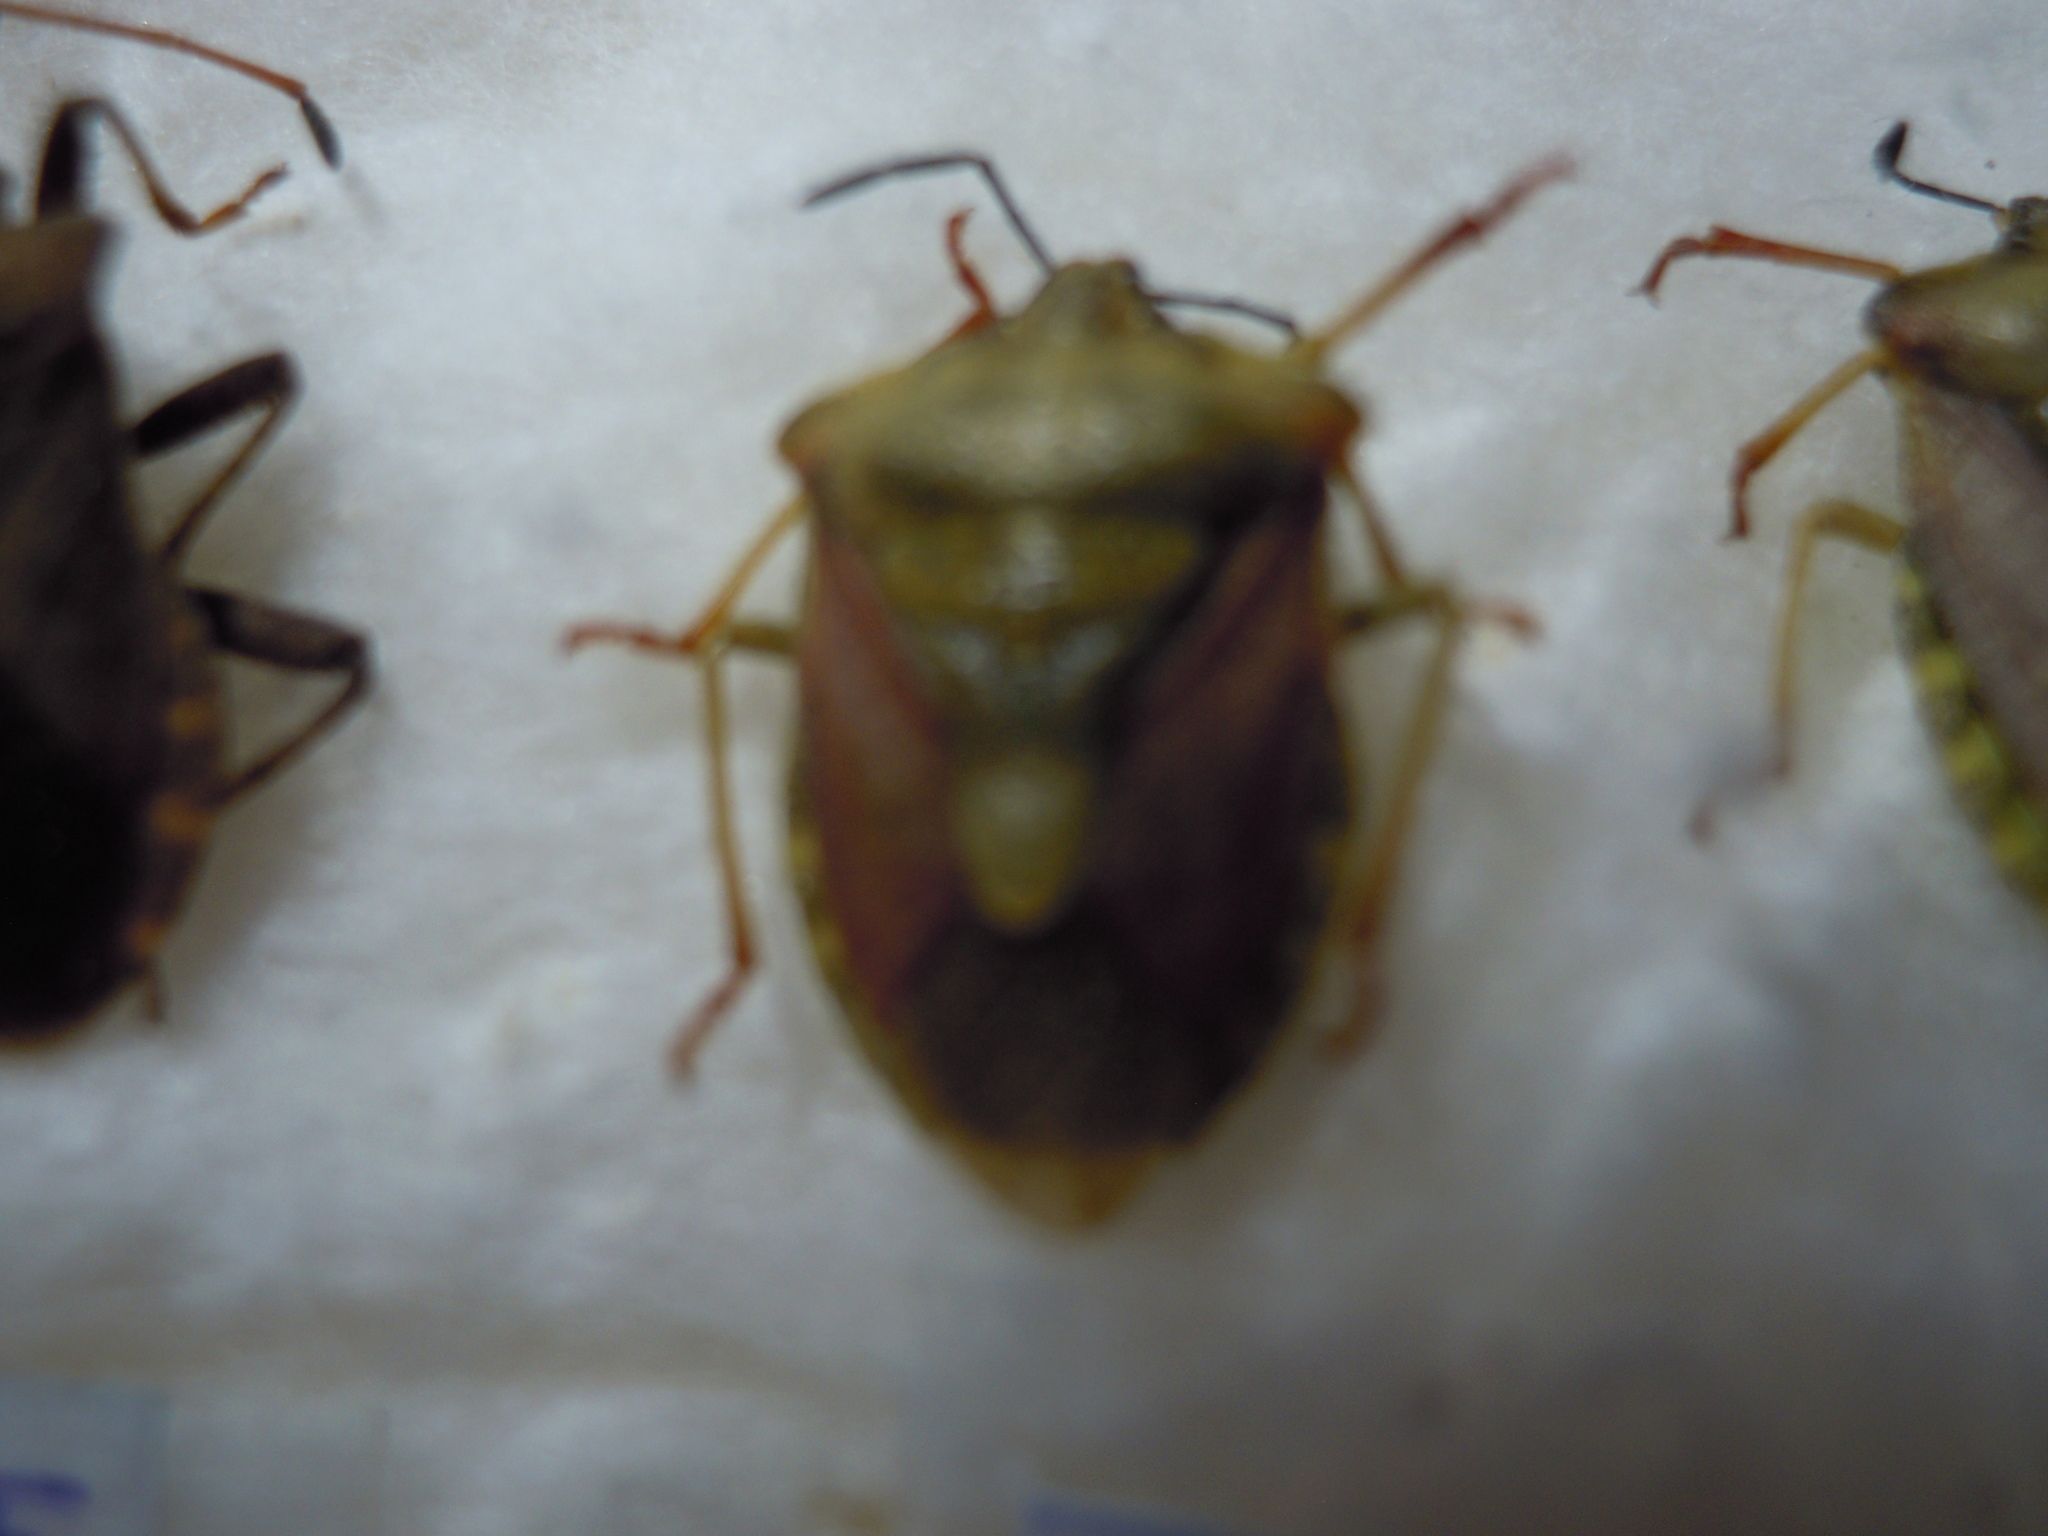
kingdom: Animalia
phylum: Arthropoda
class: Insecta
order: Hemiptera
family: Pentatomidae
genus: Carpocoris
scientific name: Carpocoris purpureipennis
